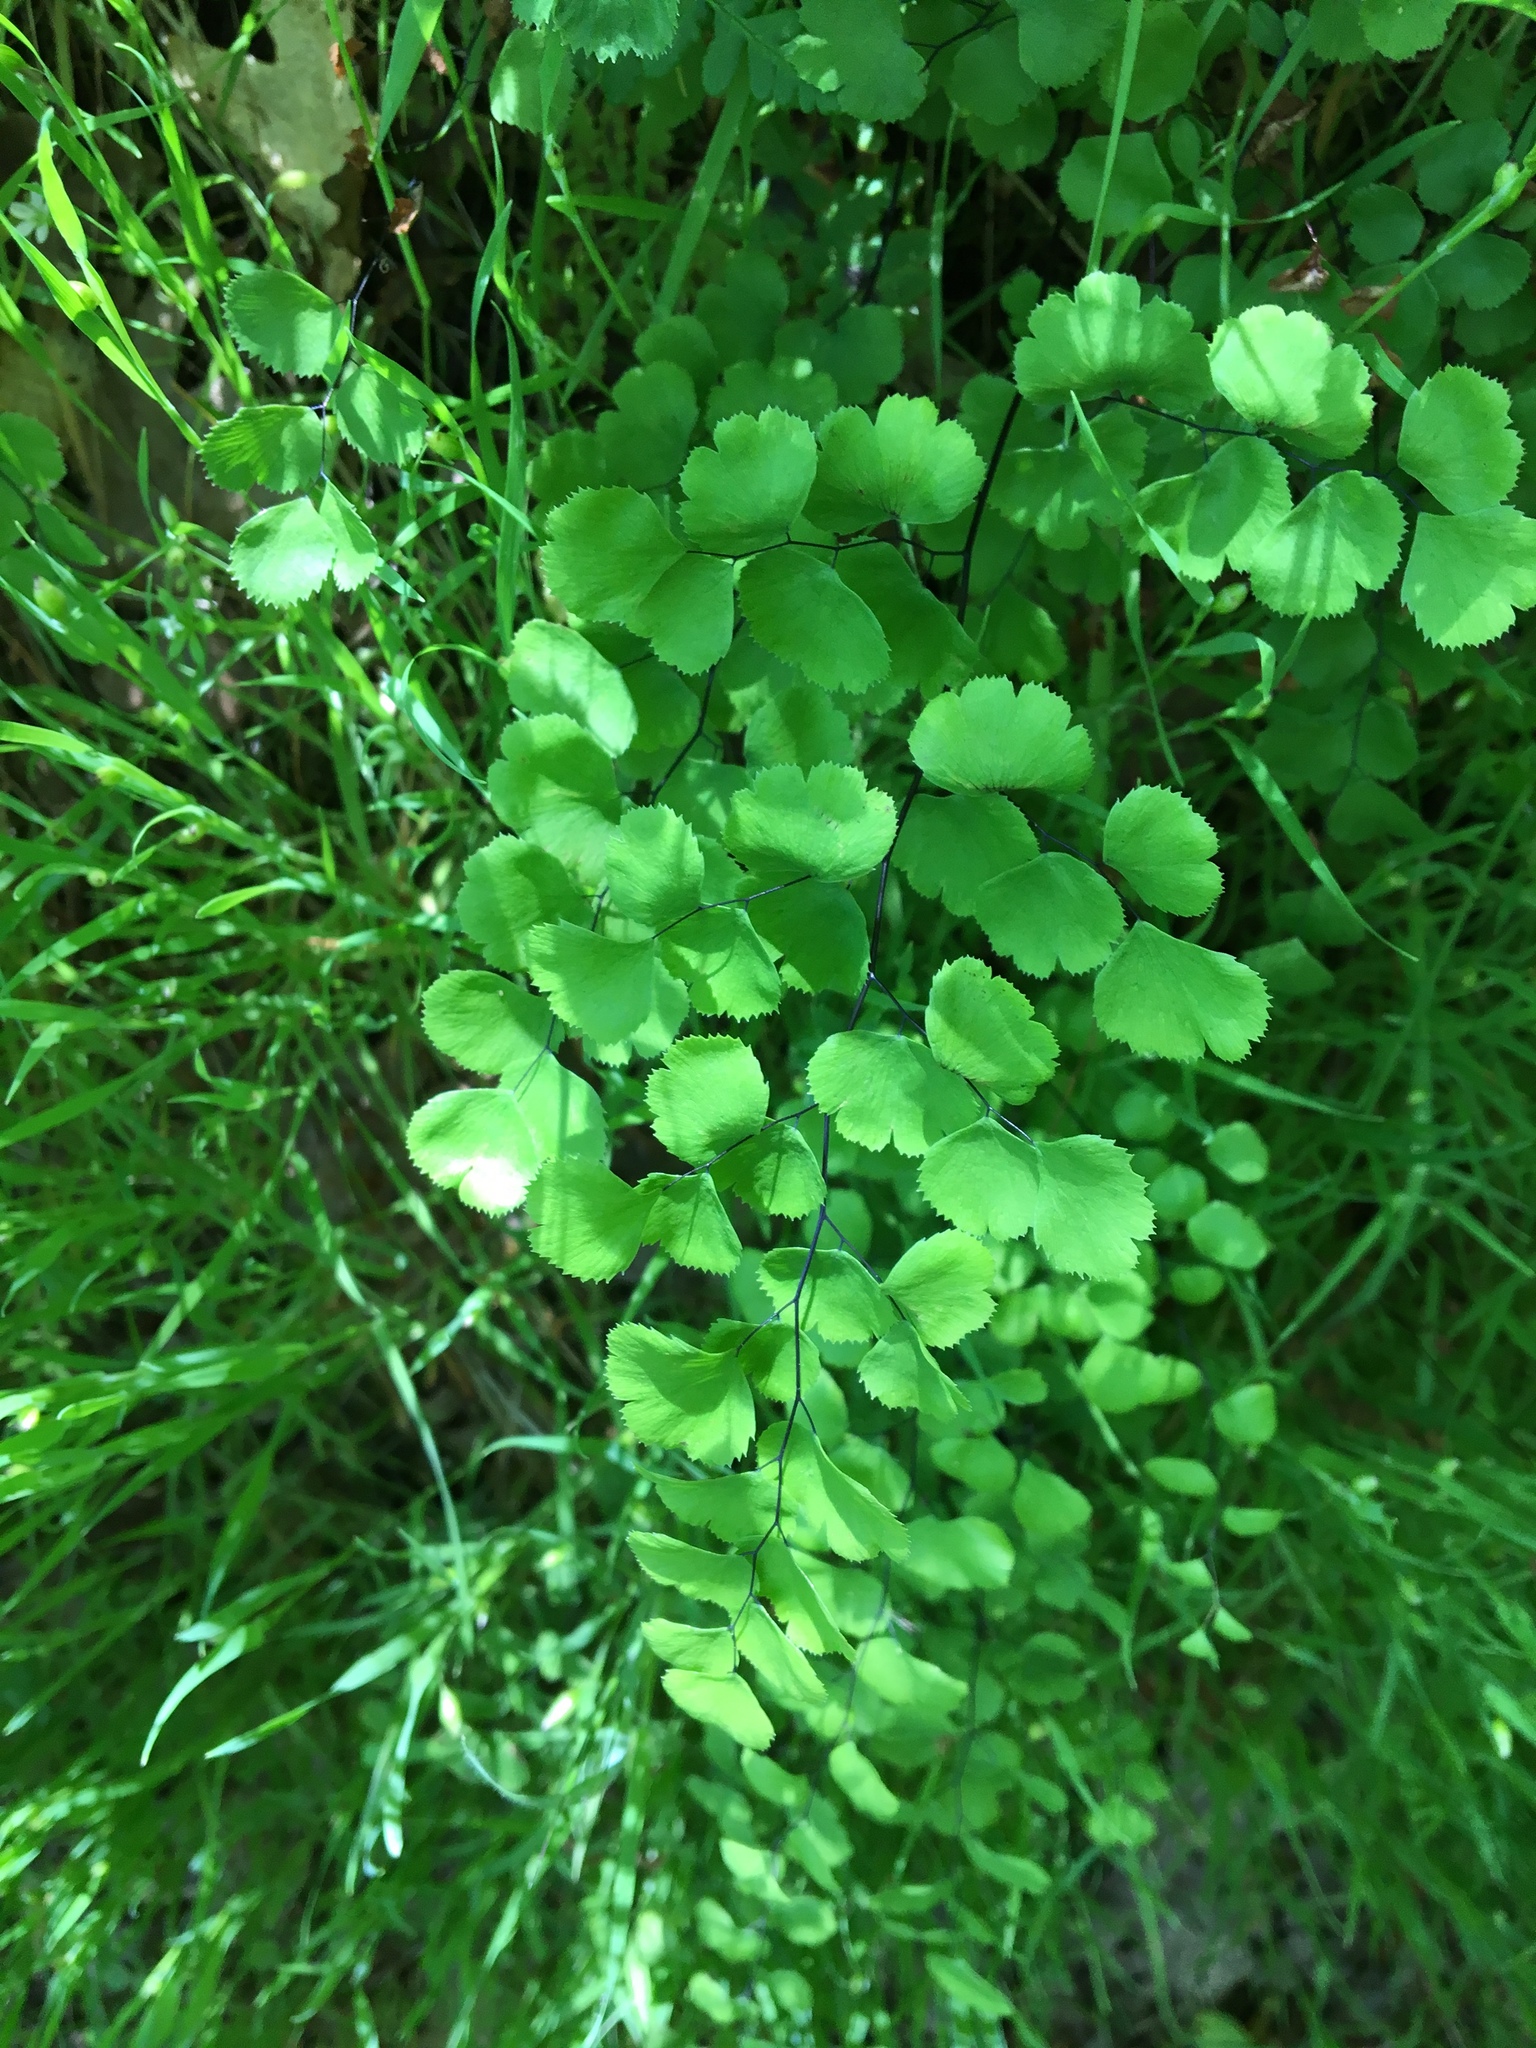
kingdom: Plantae
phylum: Tracheophyta
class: Polypodiopsida
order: Polypodiales
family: Pteridaceae
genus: Adiantum
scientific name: Adiantum jordanii
